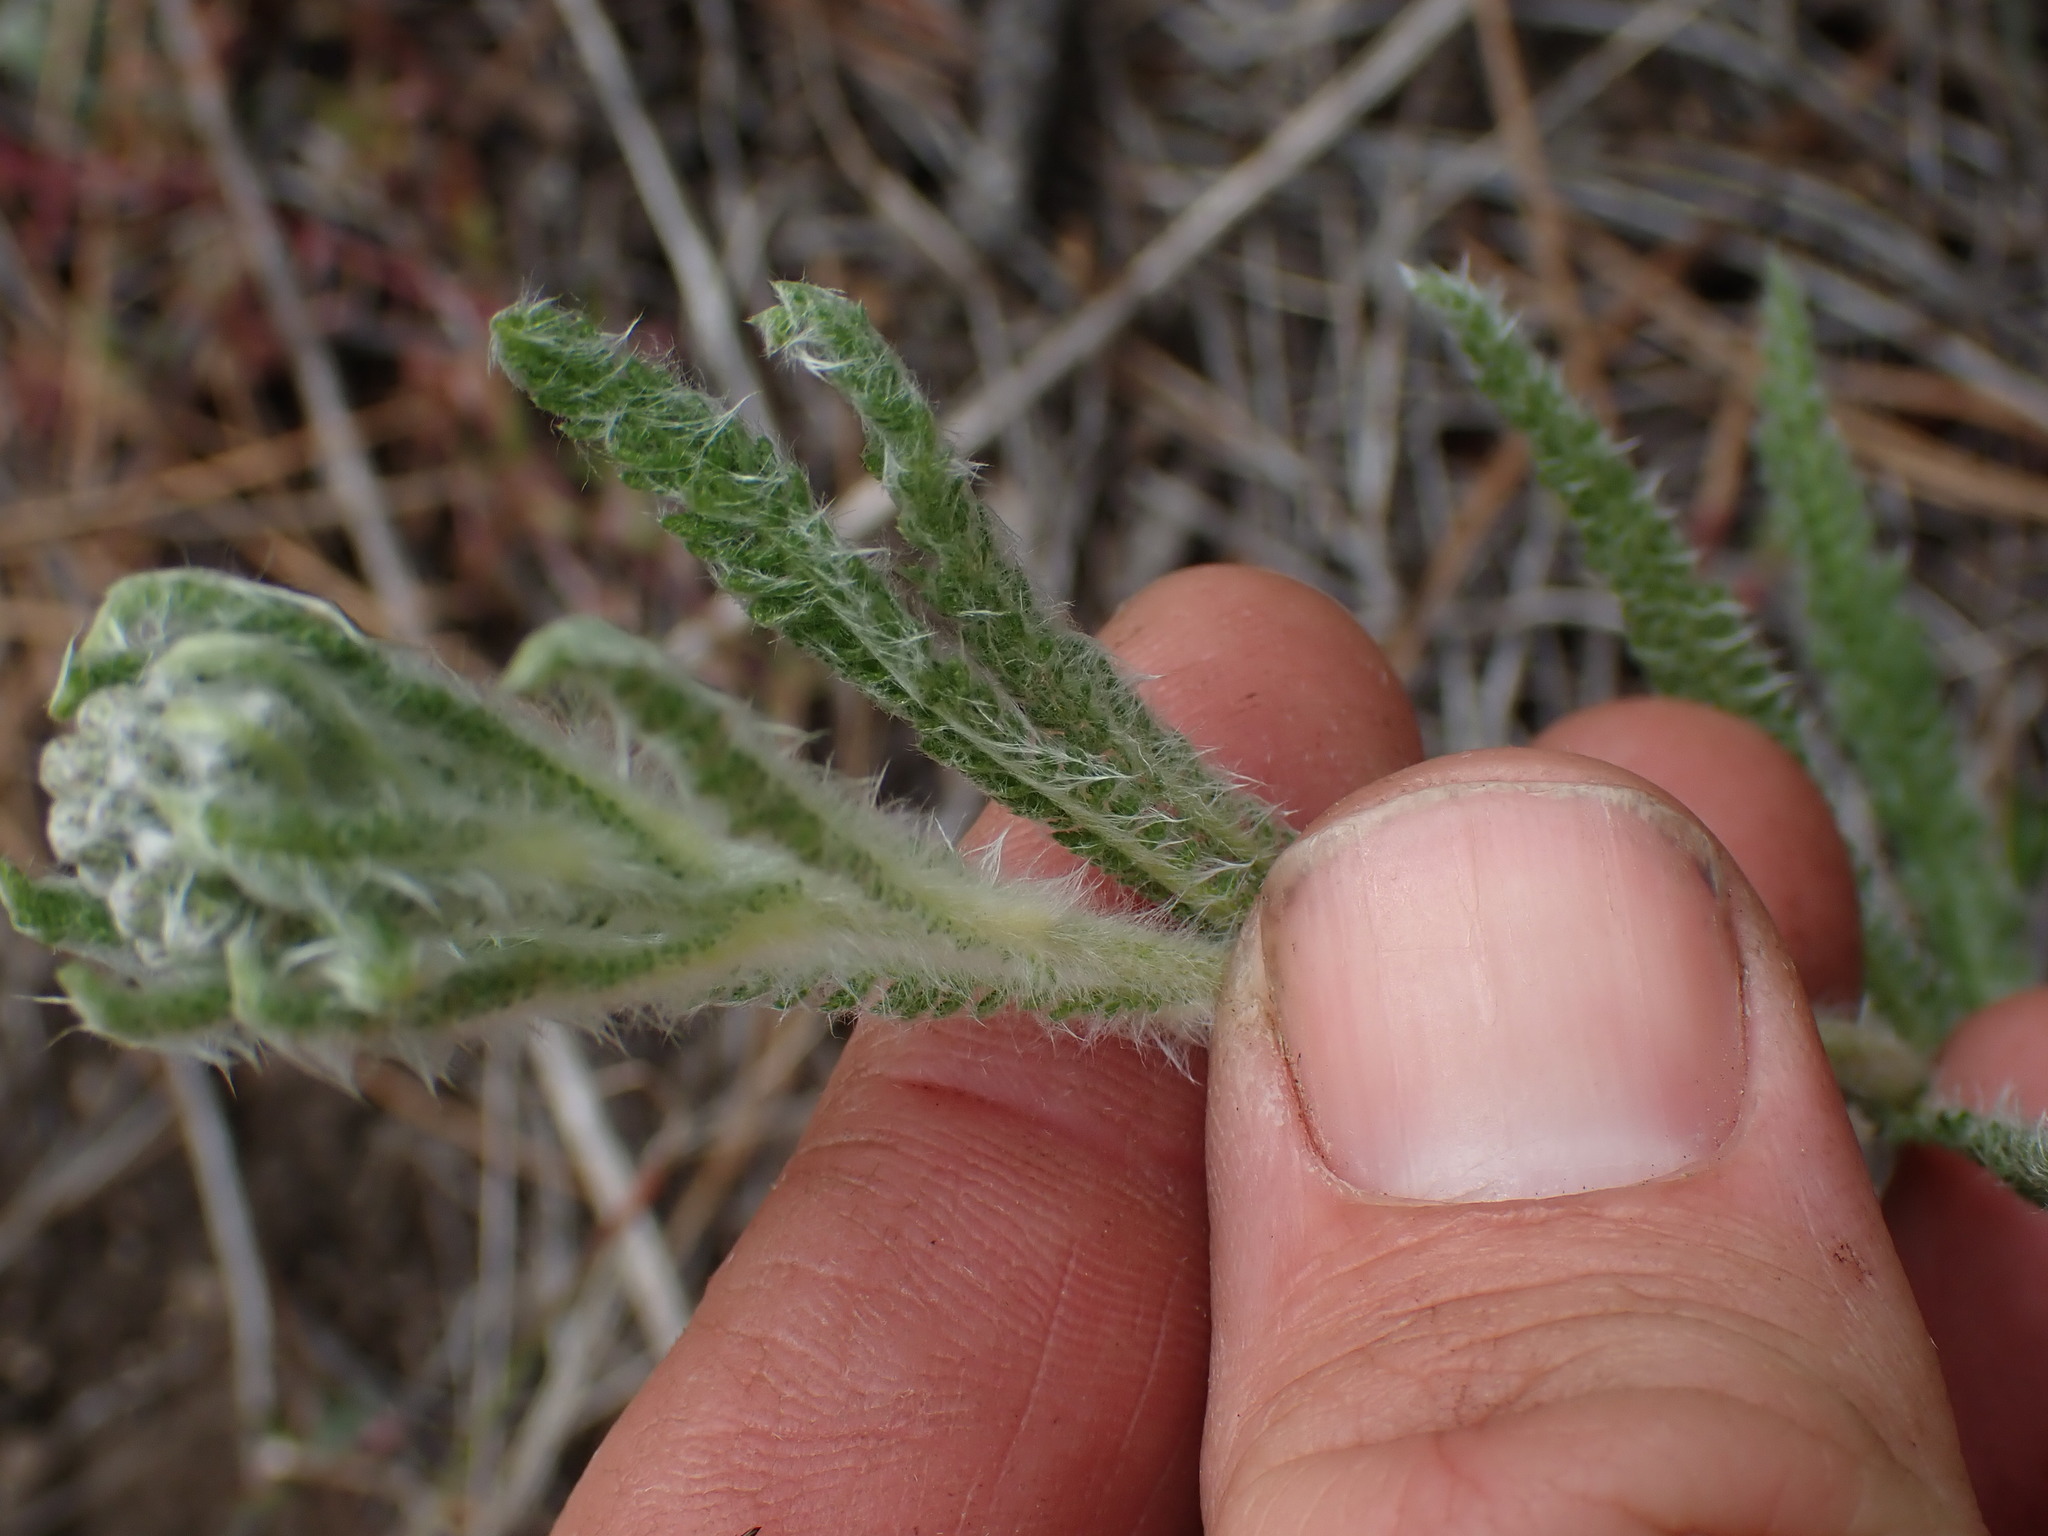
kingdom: Plantae
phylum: Tracheophyta
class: Magnoliopsida
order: Asterales
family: Asteraceae
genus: Achillea
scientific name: Achillea millefolium
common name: Yarrow
